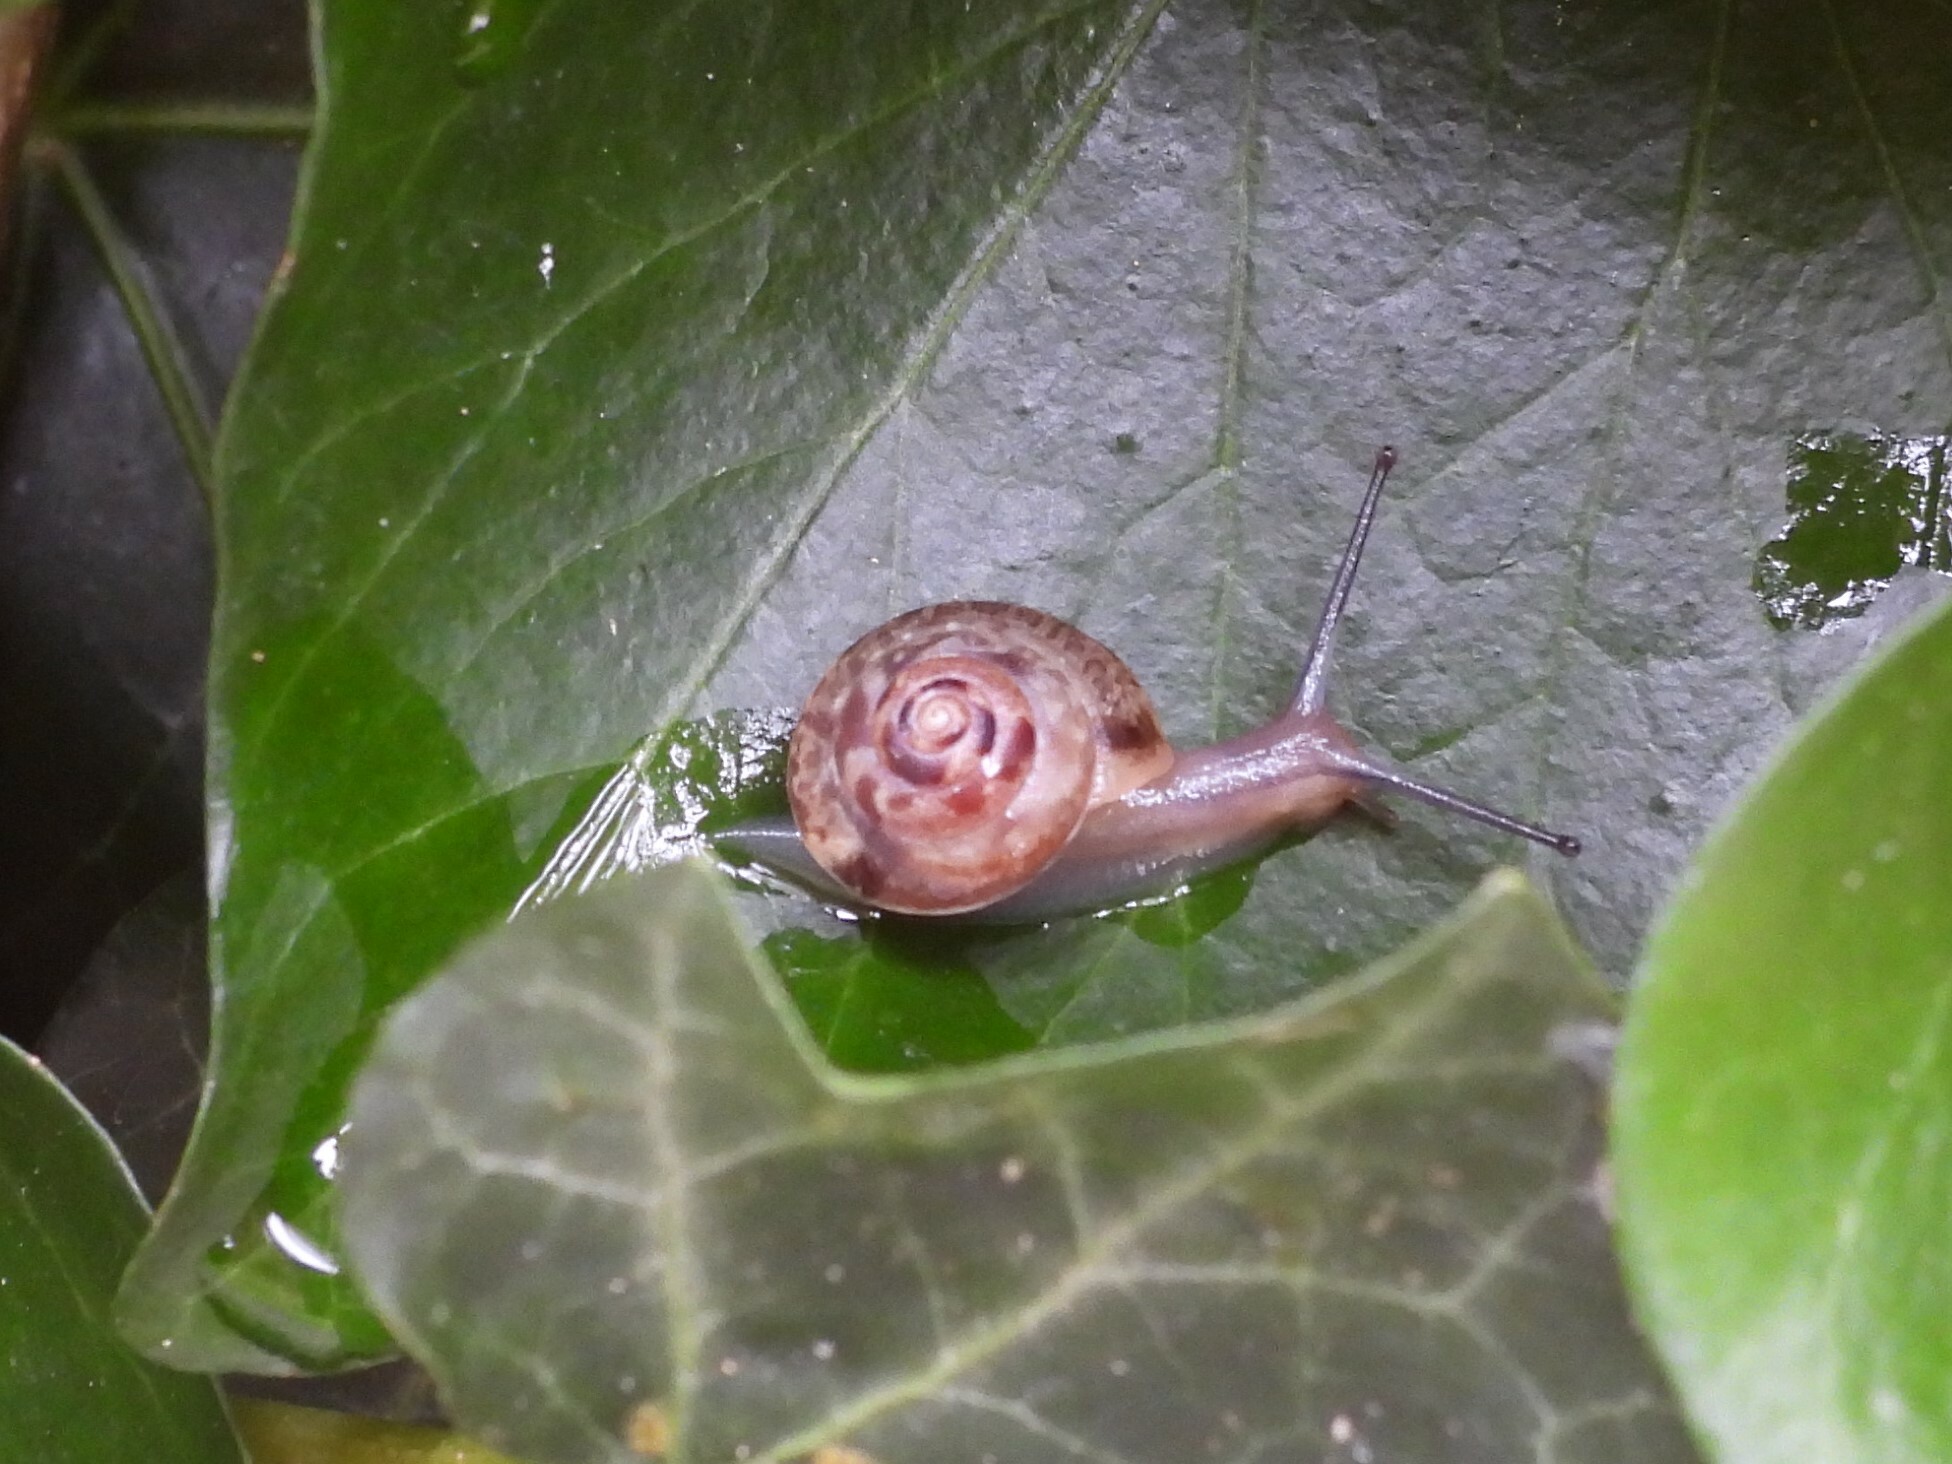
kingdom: Animalia
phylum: Mollusca
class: Gastropoda
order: Stylommatophora
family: Hygromiidae
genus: Hygromia
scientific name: Hygromia cinctella
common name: Girdled snail
